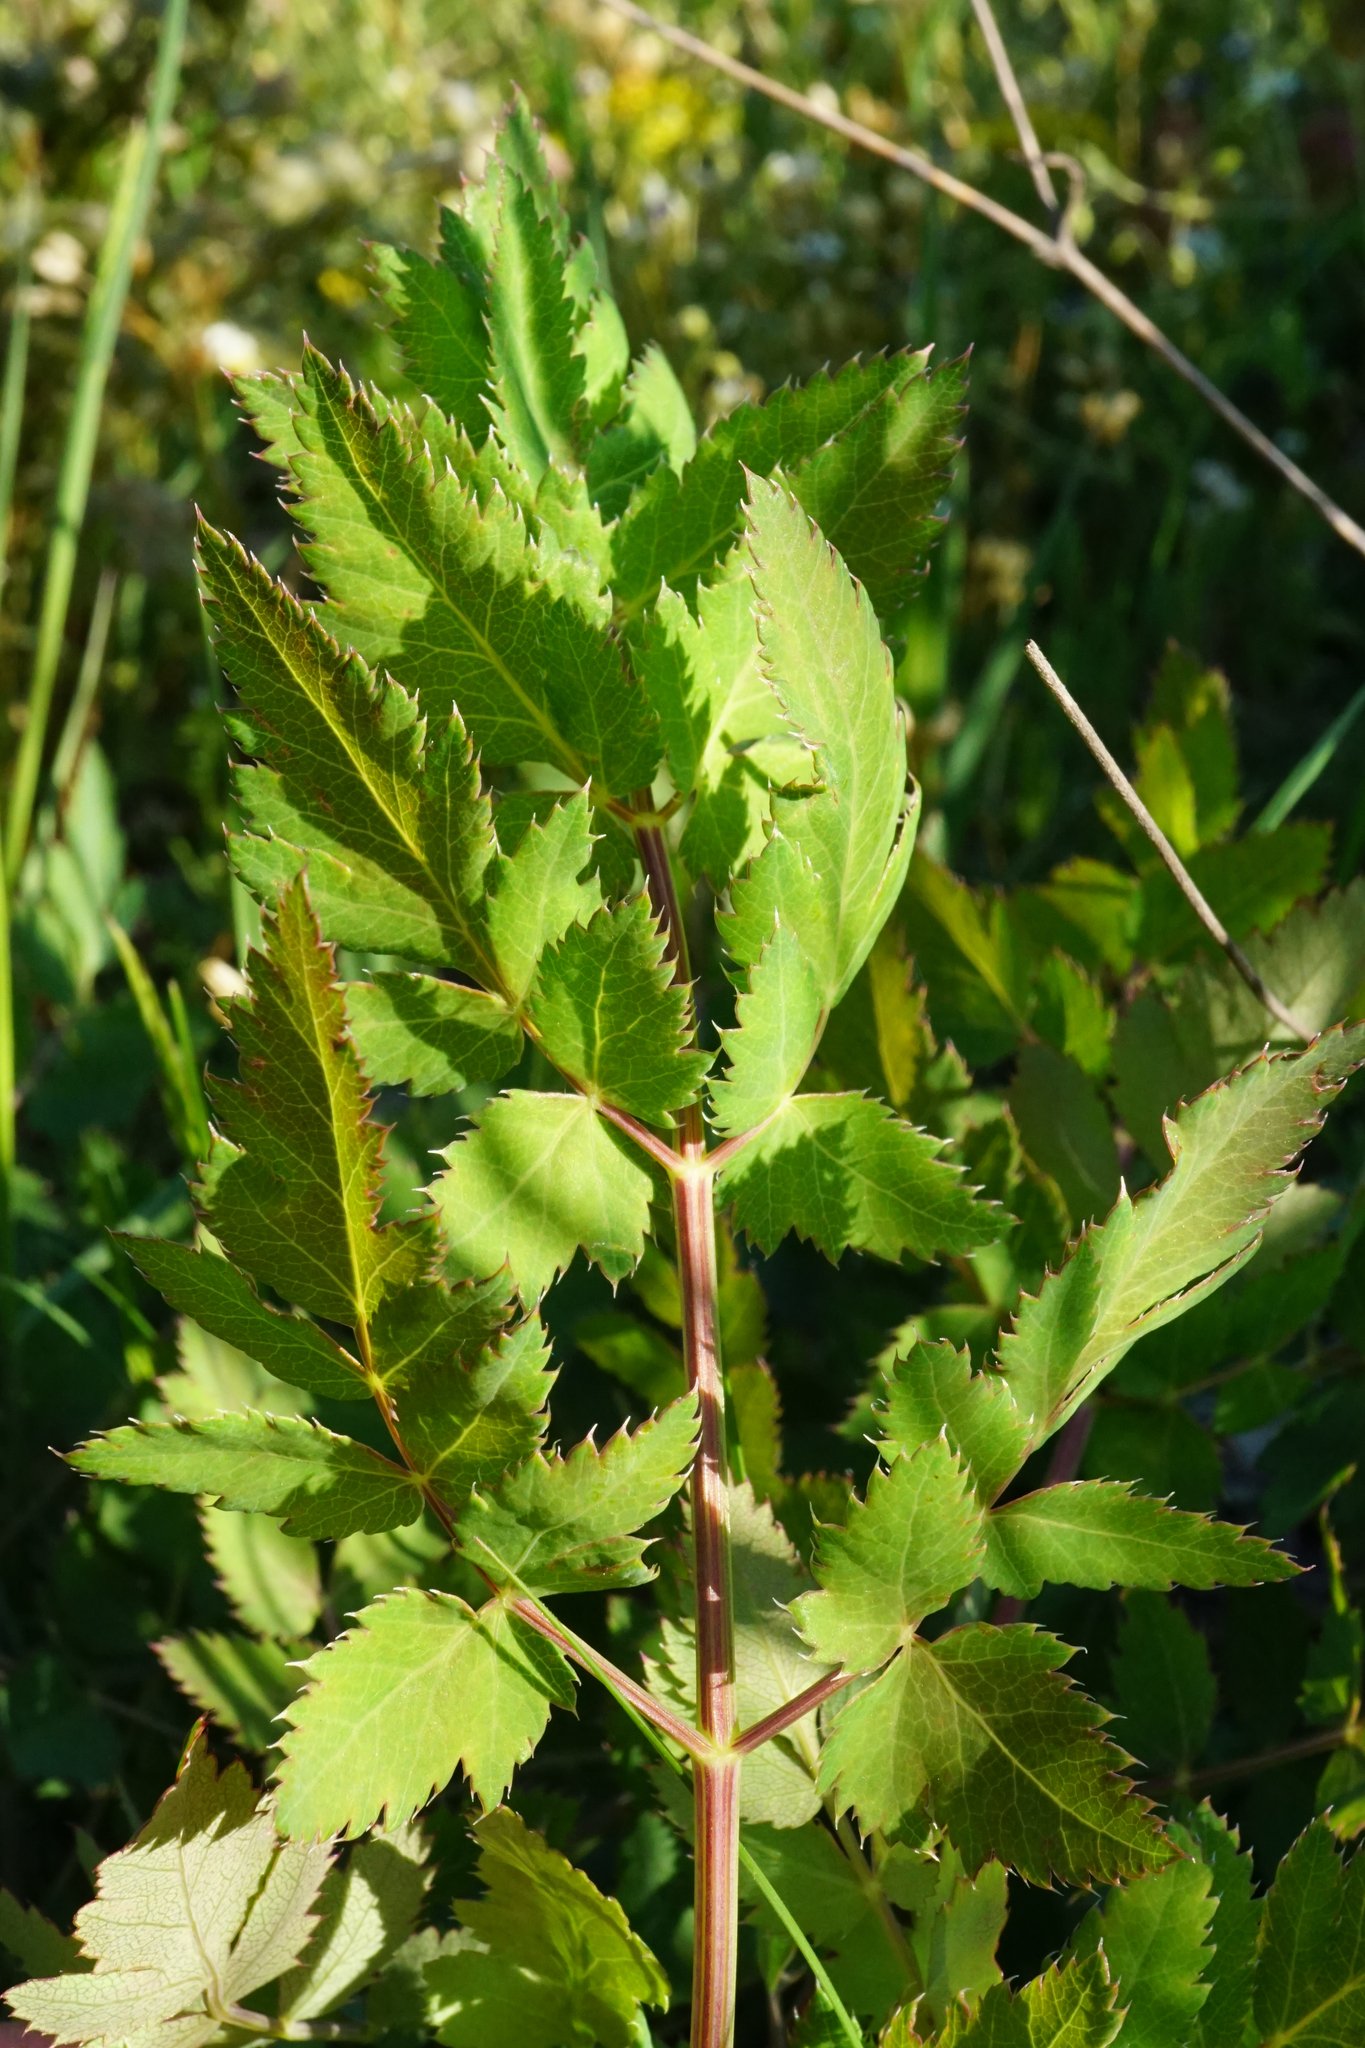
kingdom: Plantae
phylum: Tracheophyta
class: Magnoliopsida
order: Apiales
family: Apiaceae
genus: Cervaria
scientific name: Cervaria rivini
